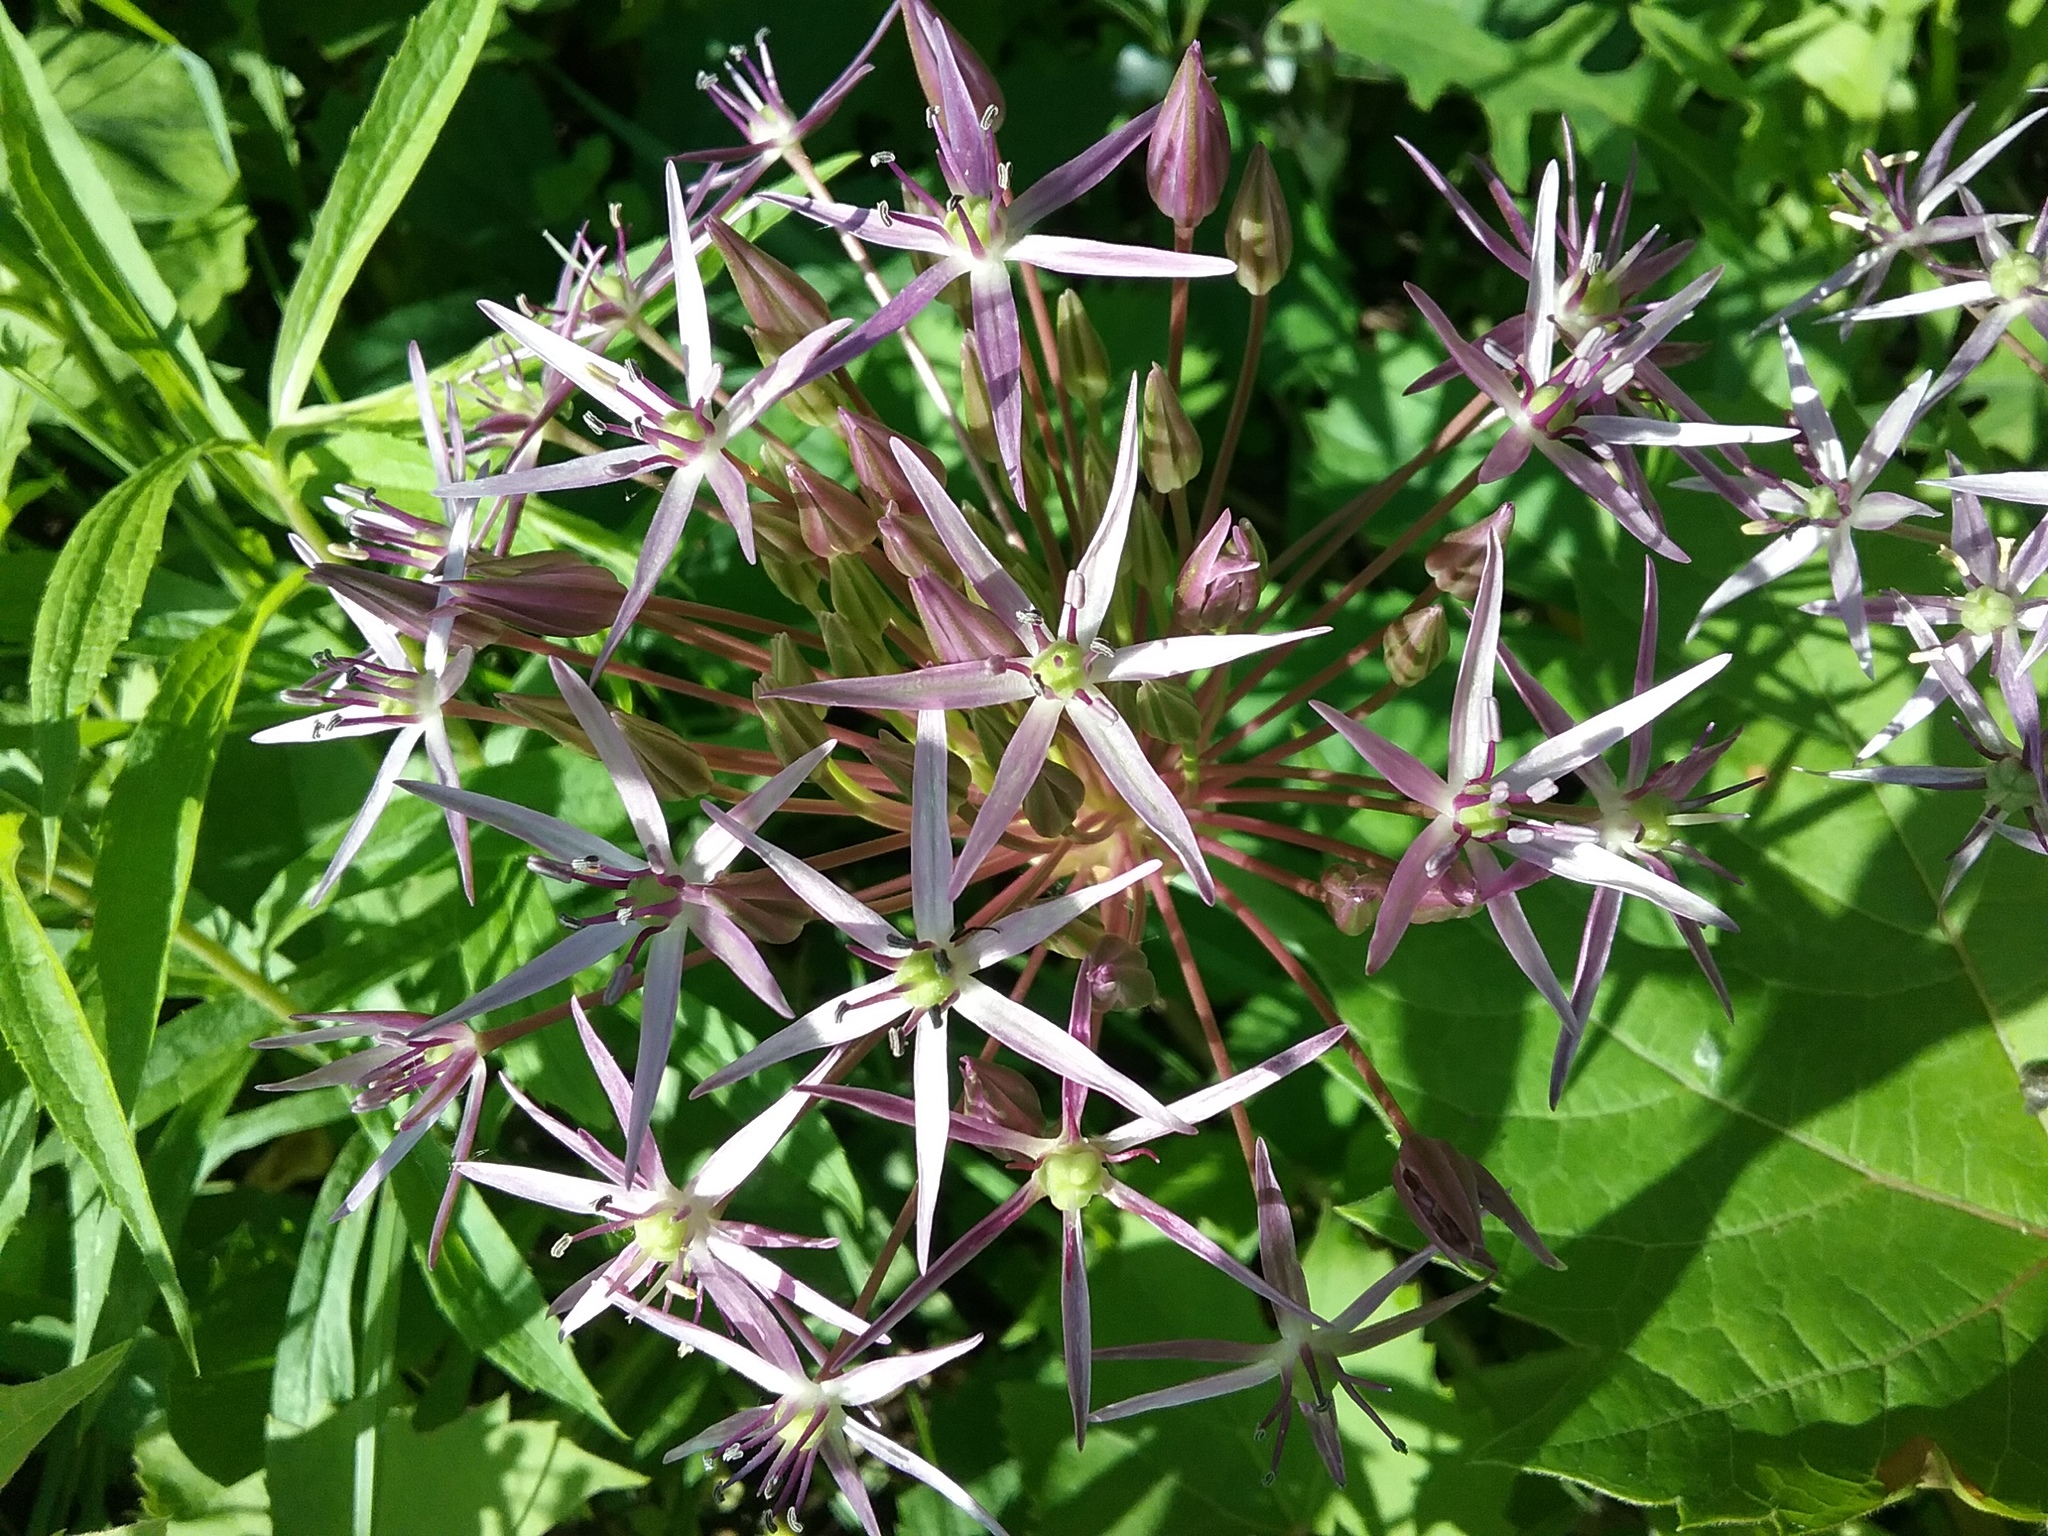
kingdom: Plantae
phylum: Tracheophyta
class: Liliopsida
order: Asparagales
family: Amaryllidaceae
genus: Allium
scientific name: Allium cristophii
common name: Persian onion
